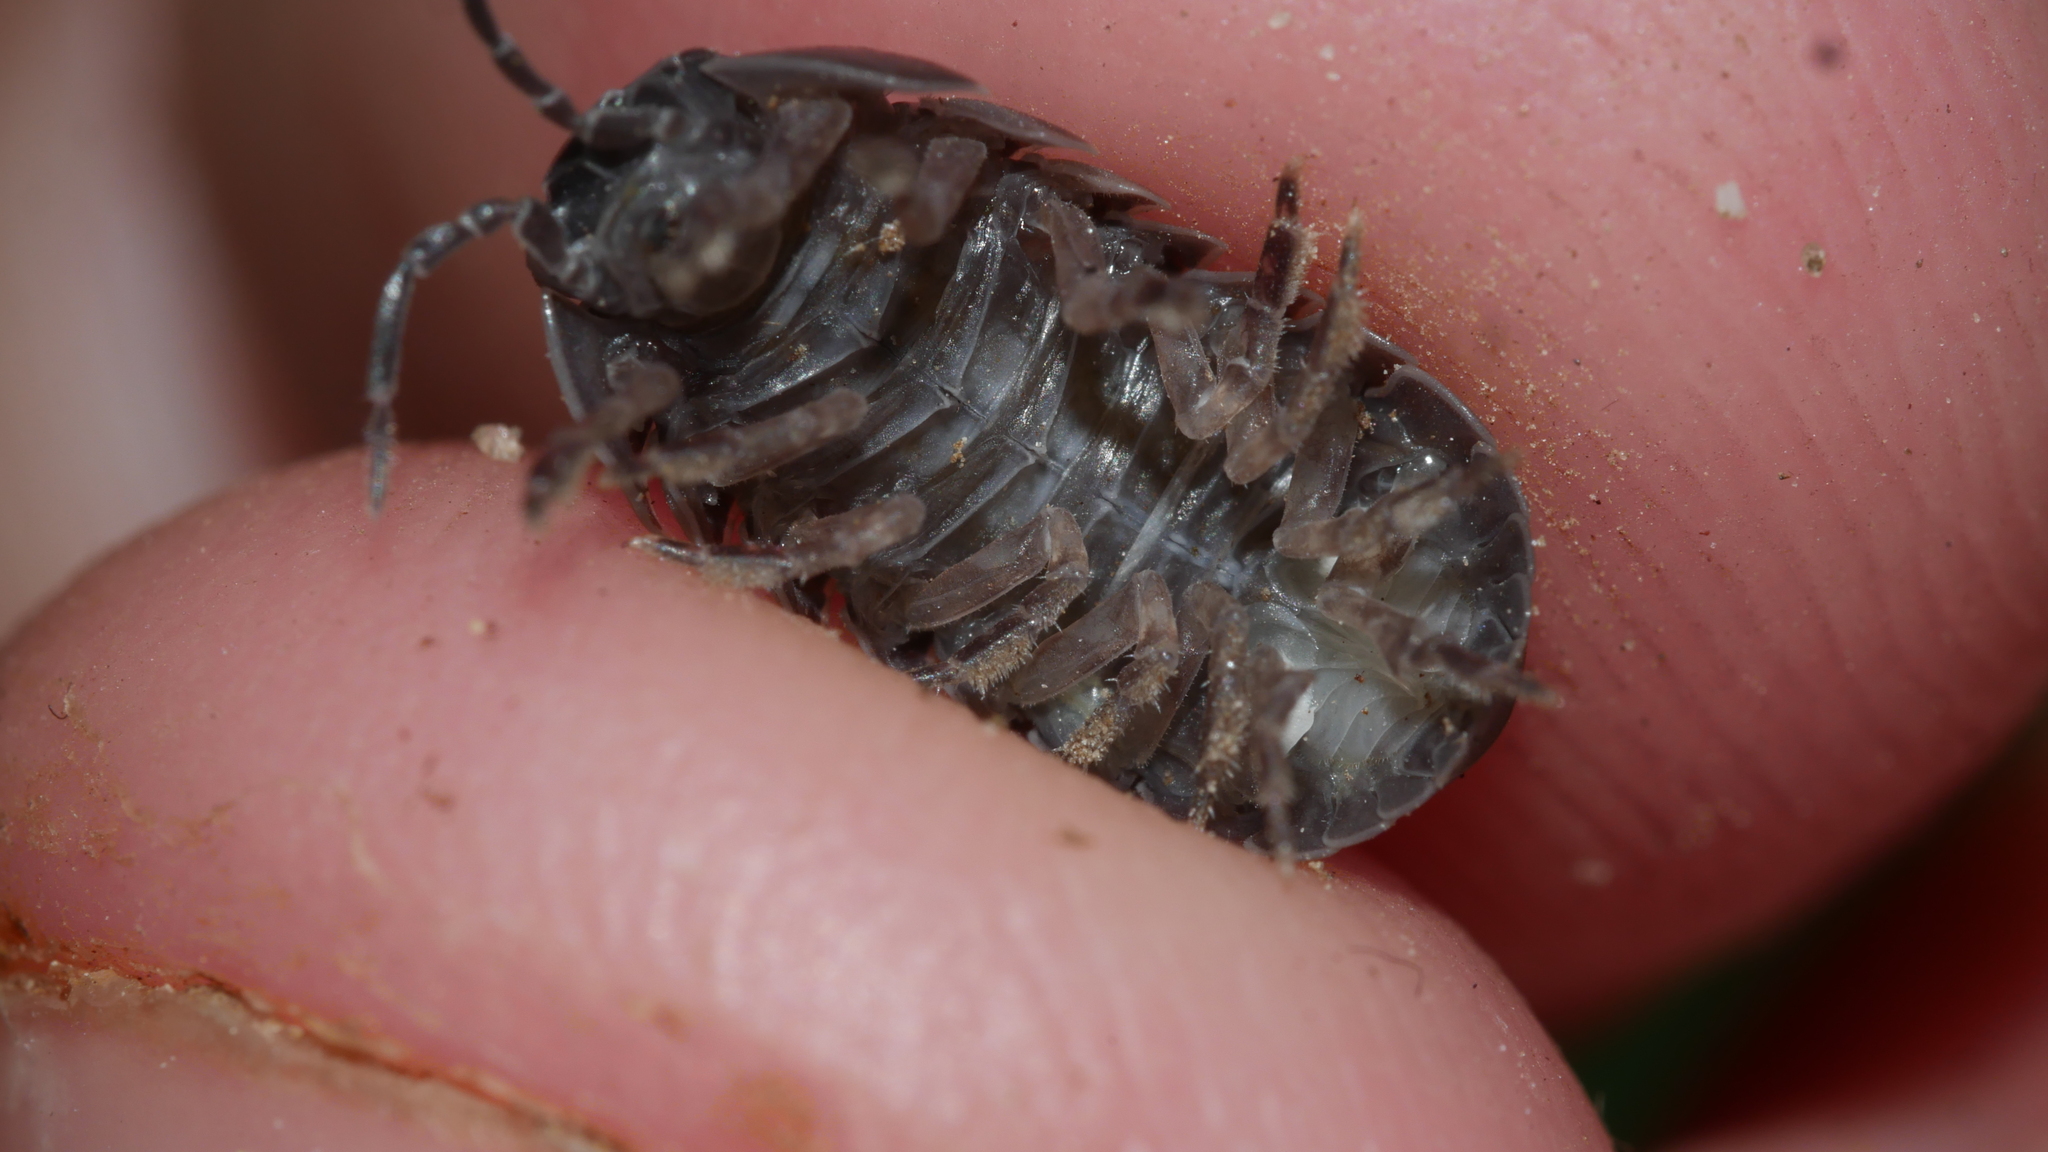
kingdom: Animalia
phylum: Arthropoda
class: Malacostraca
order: Isopoda
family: Armadillidiidae
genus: Armadillidium
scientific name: Armadillidium vulgare
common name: Common pill woodlouse
